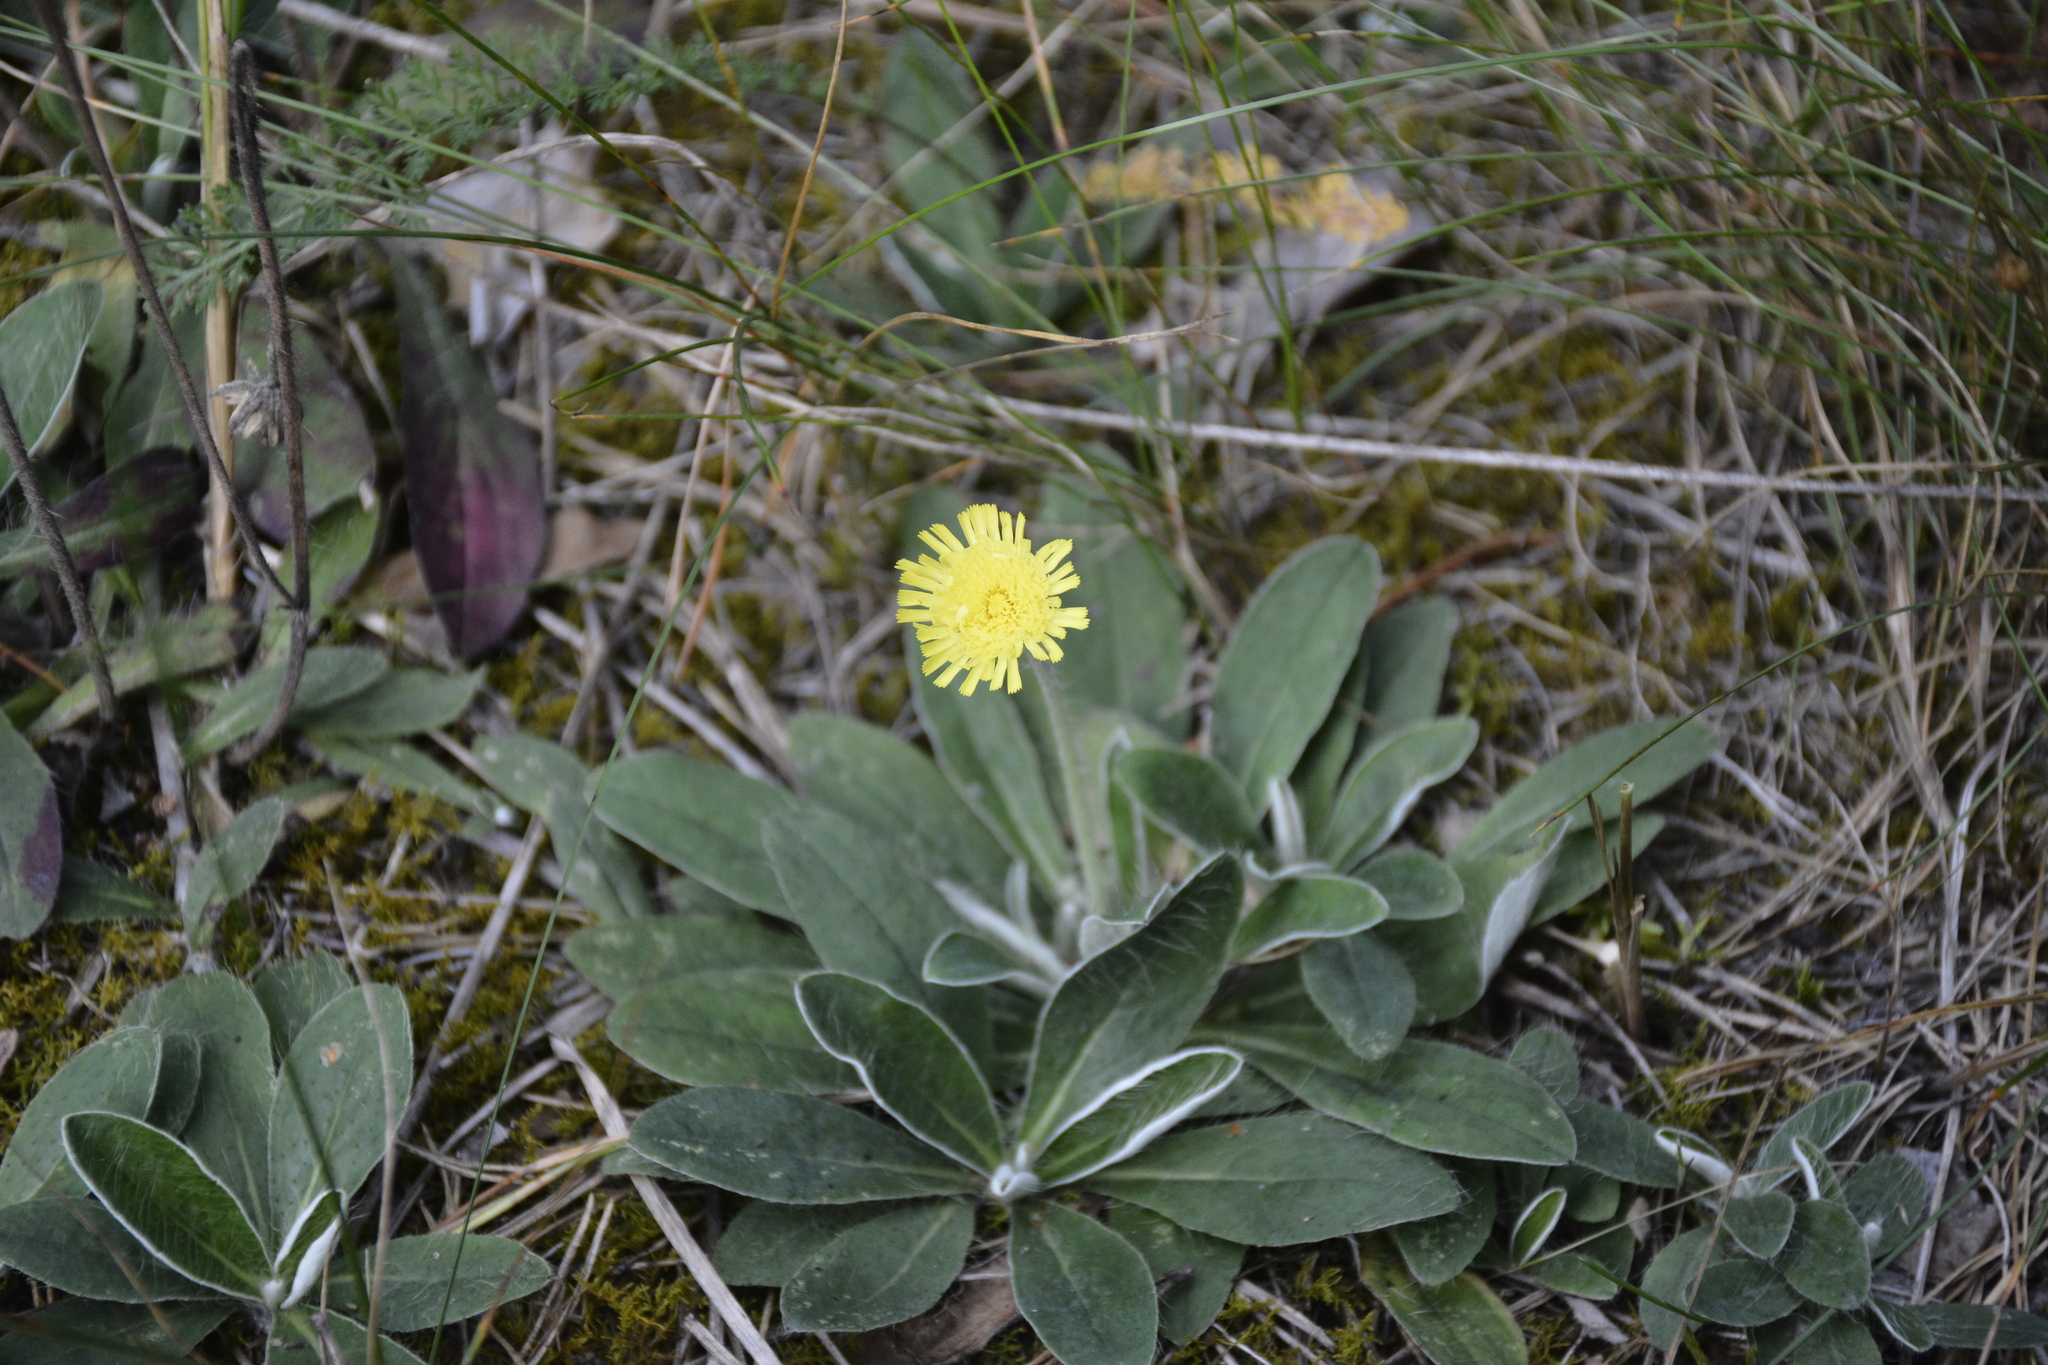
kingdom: Plantae
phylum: Tracheophyta
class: Magnoliopsida
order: Asterales
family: Asteraceae
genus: Pilosella
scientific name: Pilosella officinarum
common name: Mouse-ear hawkweed
